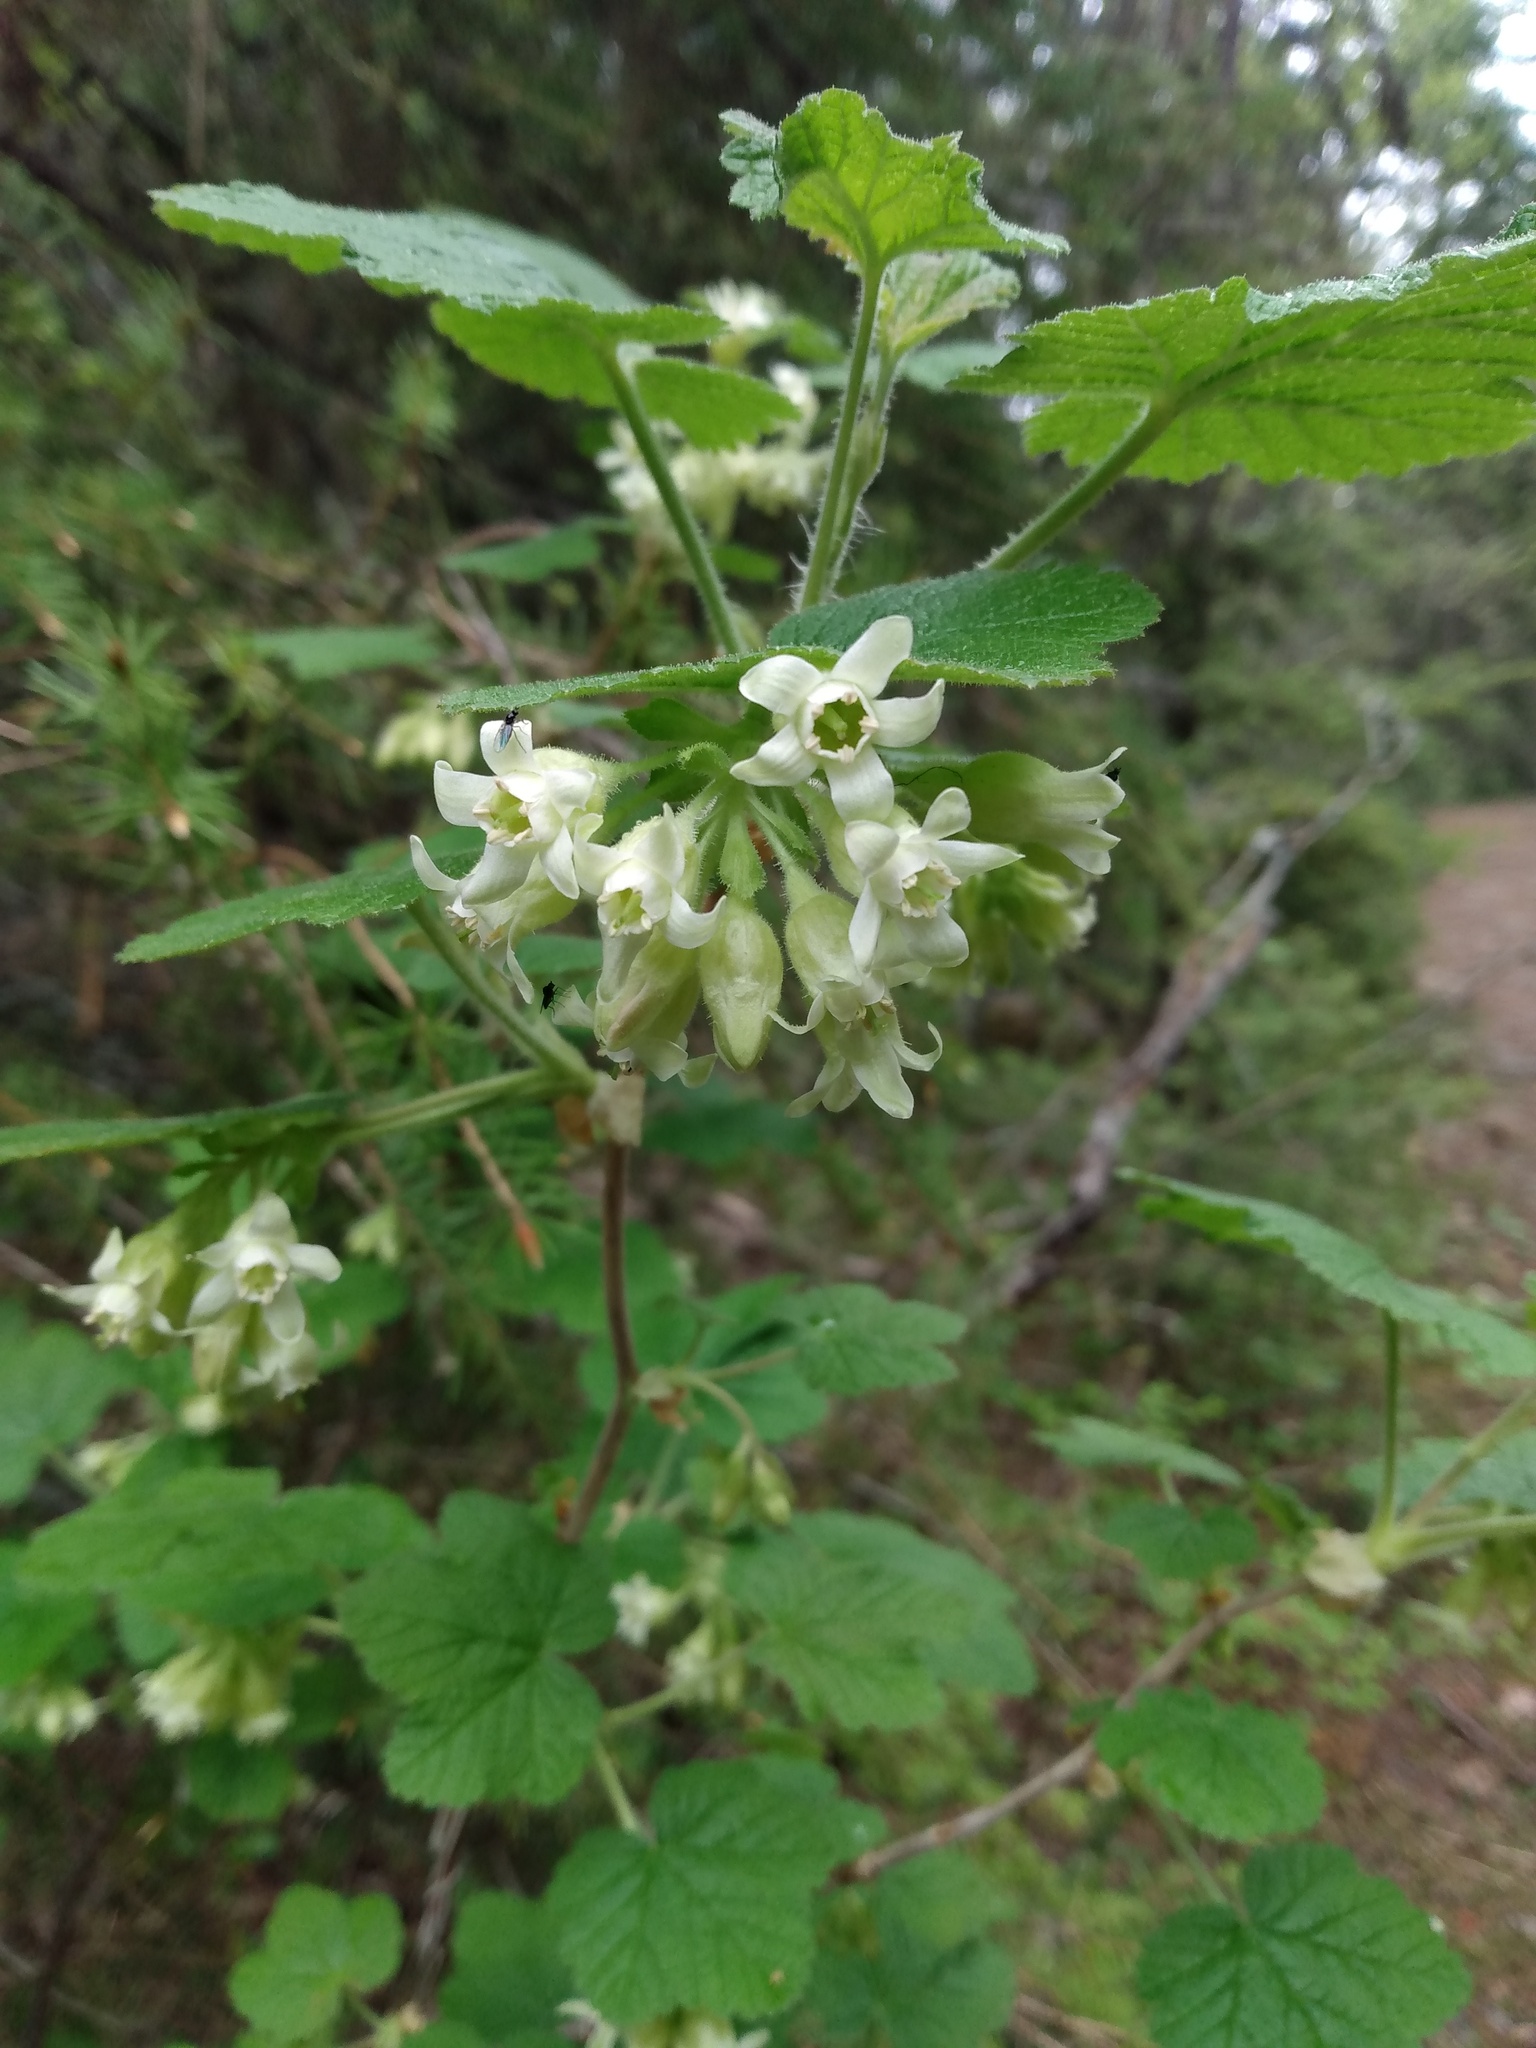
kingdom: Plantae
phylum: Tracheophyta
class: Magnoliopsida
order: Saxifragales
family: Grossulariaceae
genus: Ribes
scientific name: Ribes viscosissimum
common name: Sticky currant
